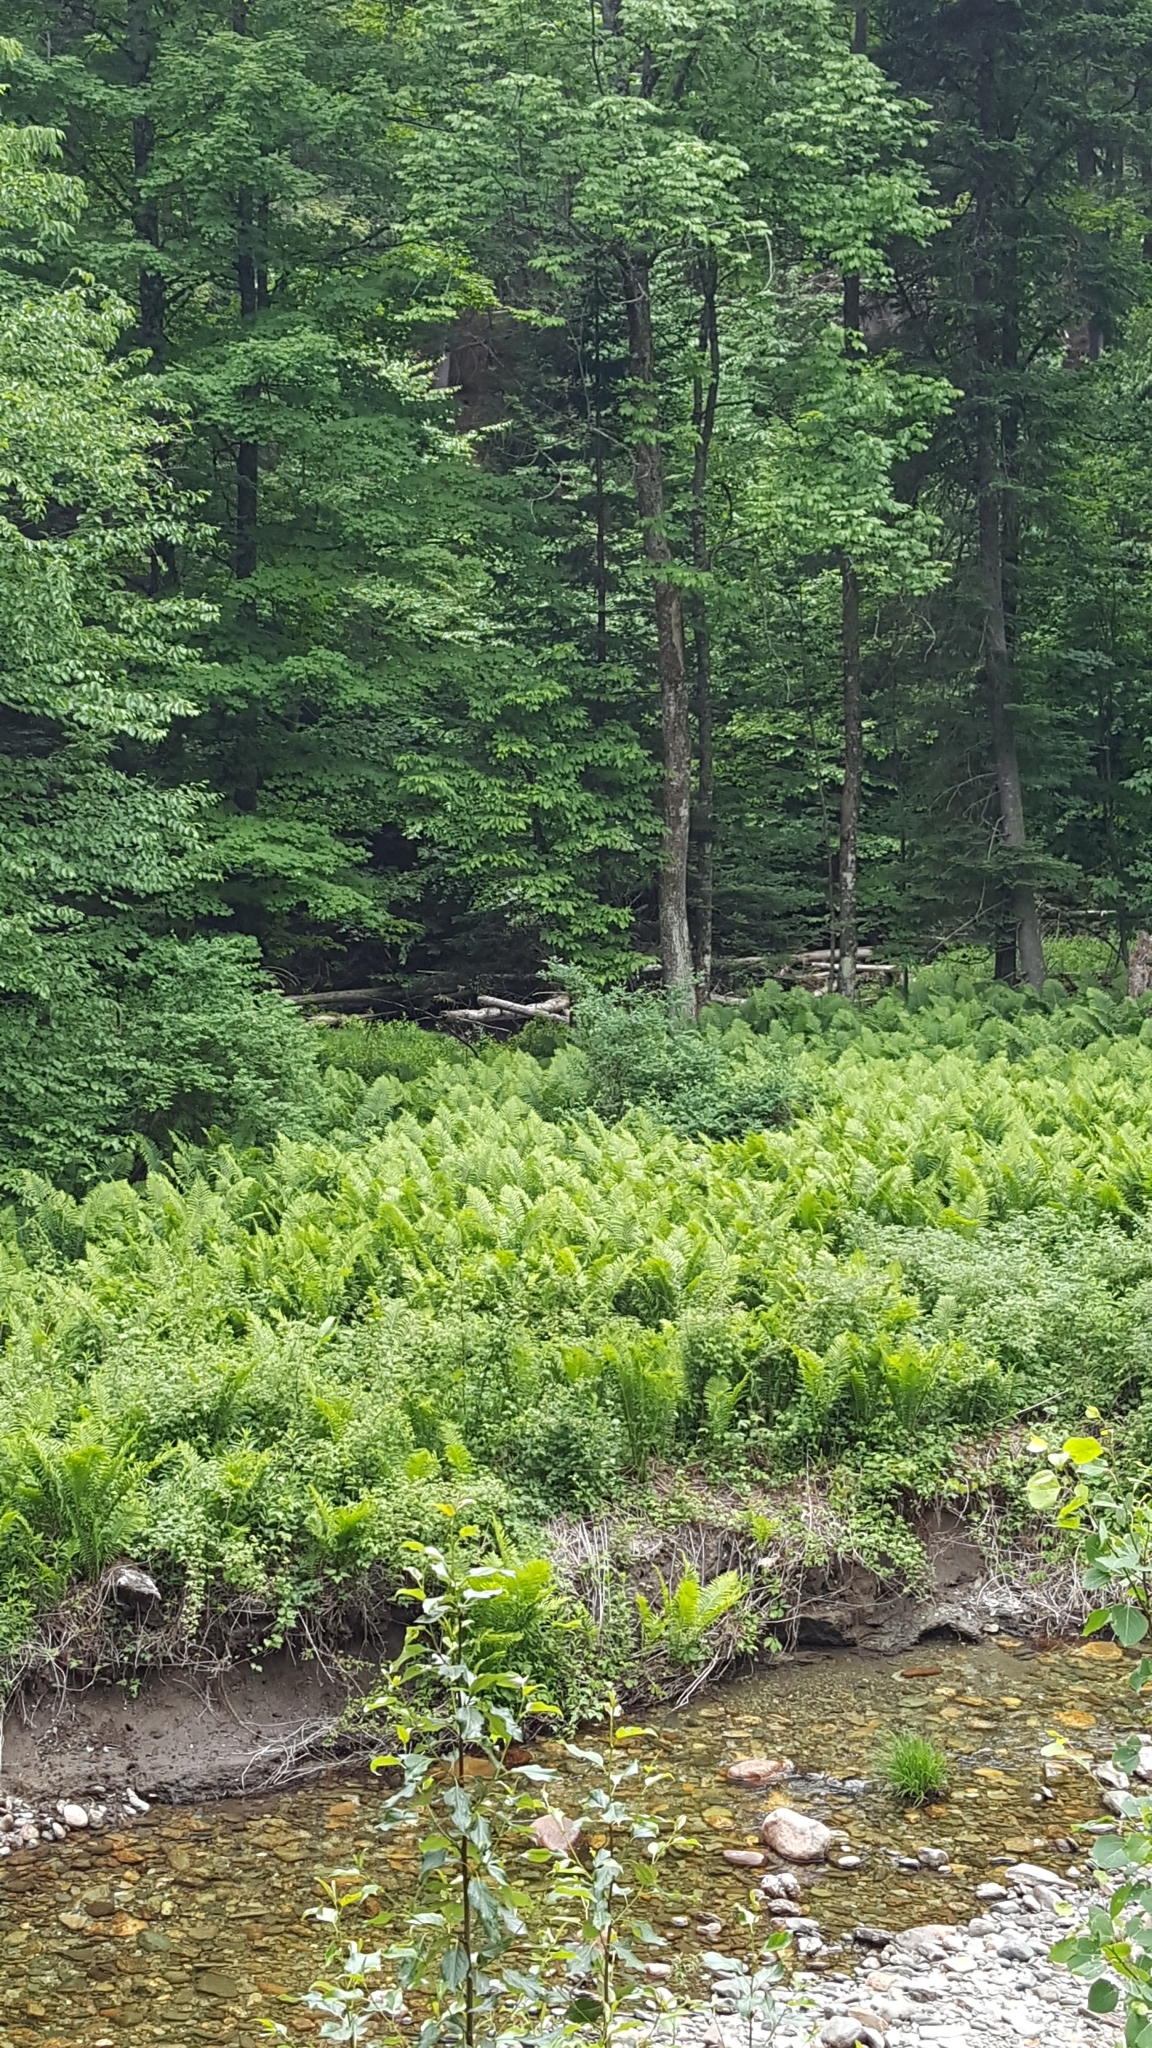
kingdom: Plantae
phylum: Tracheophyta
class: Polypodiopsida
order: Polypodiales
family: Onocleaceae
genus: Matteuccia
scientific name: Matteuccia struthiopteris
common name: Ostrich fern
